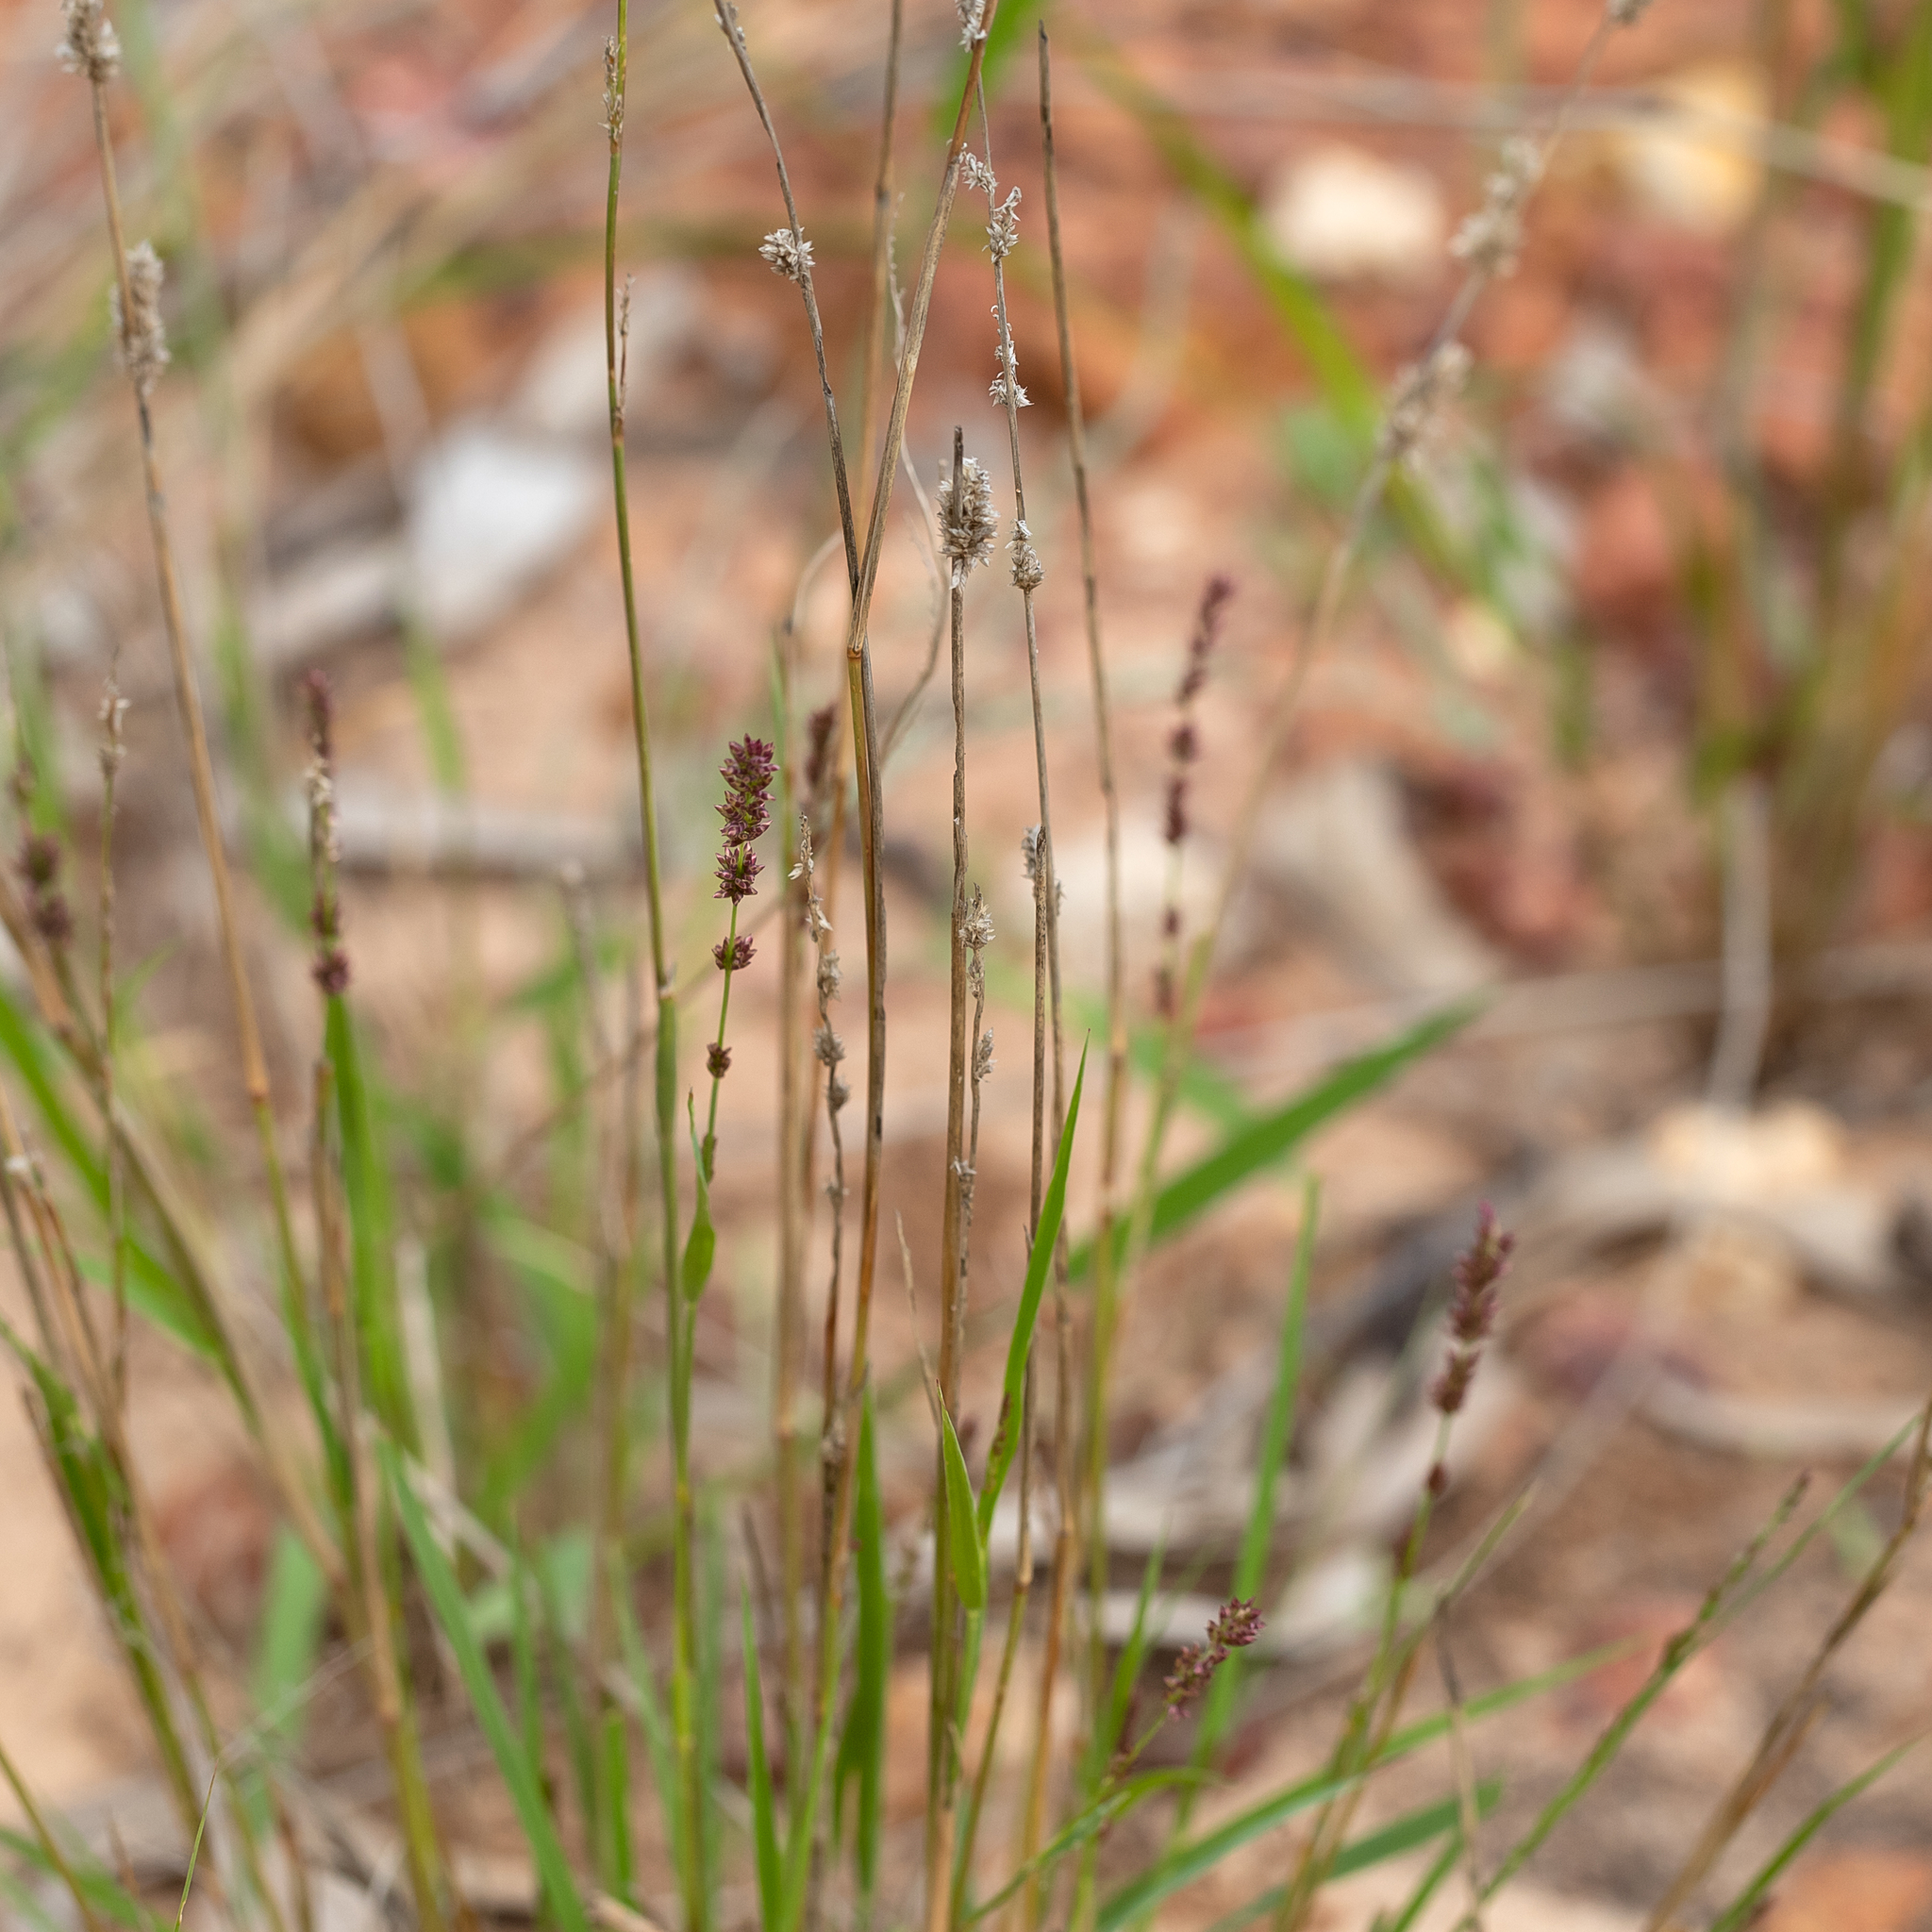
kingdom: Plantae
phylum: Tracheophyta
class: Liliopsida
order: Poales
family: Poaceae
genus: Eragrostis
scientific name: Eragrostis elongata
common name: Long lovegrass
